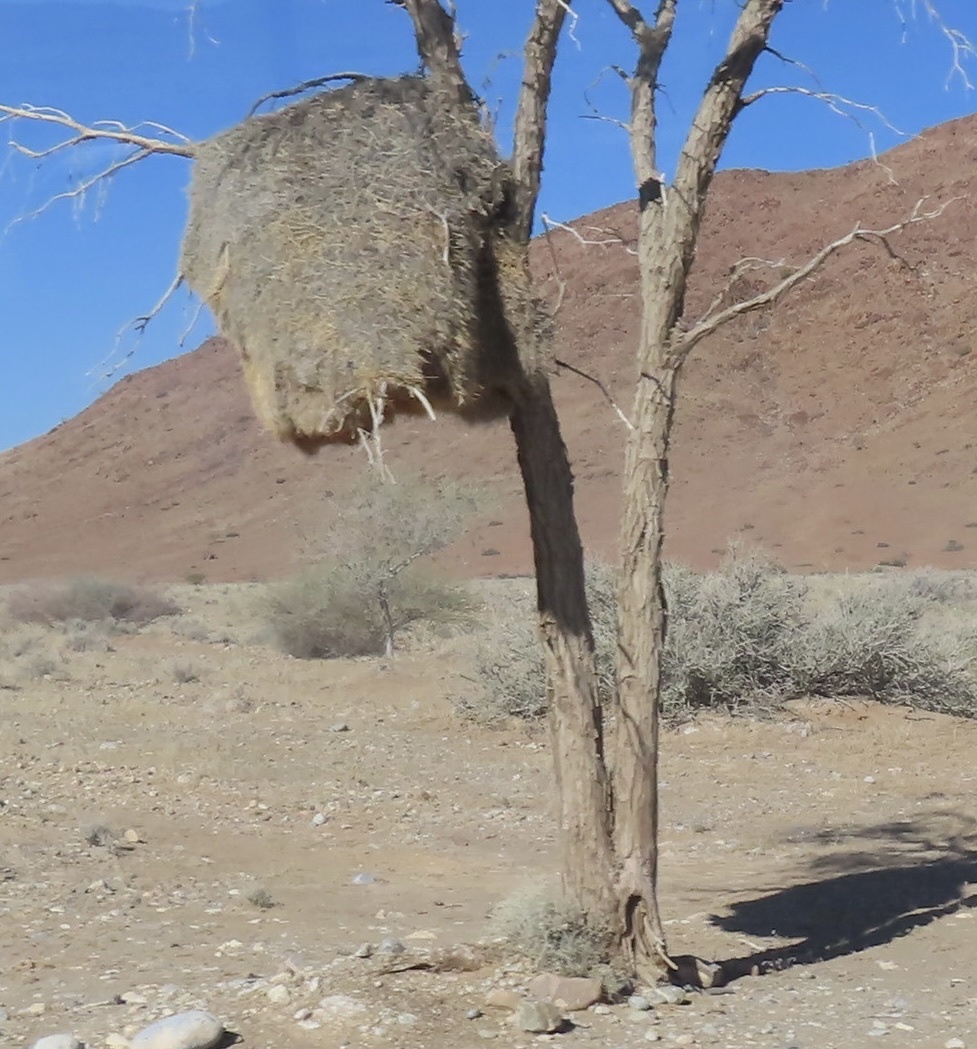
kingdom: Animalia
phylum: Chordata
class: Aves
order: Passeriformes
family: Passeridae
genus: Philetairus
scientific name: Philetairus socius
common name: Sociable weaver
